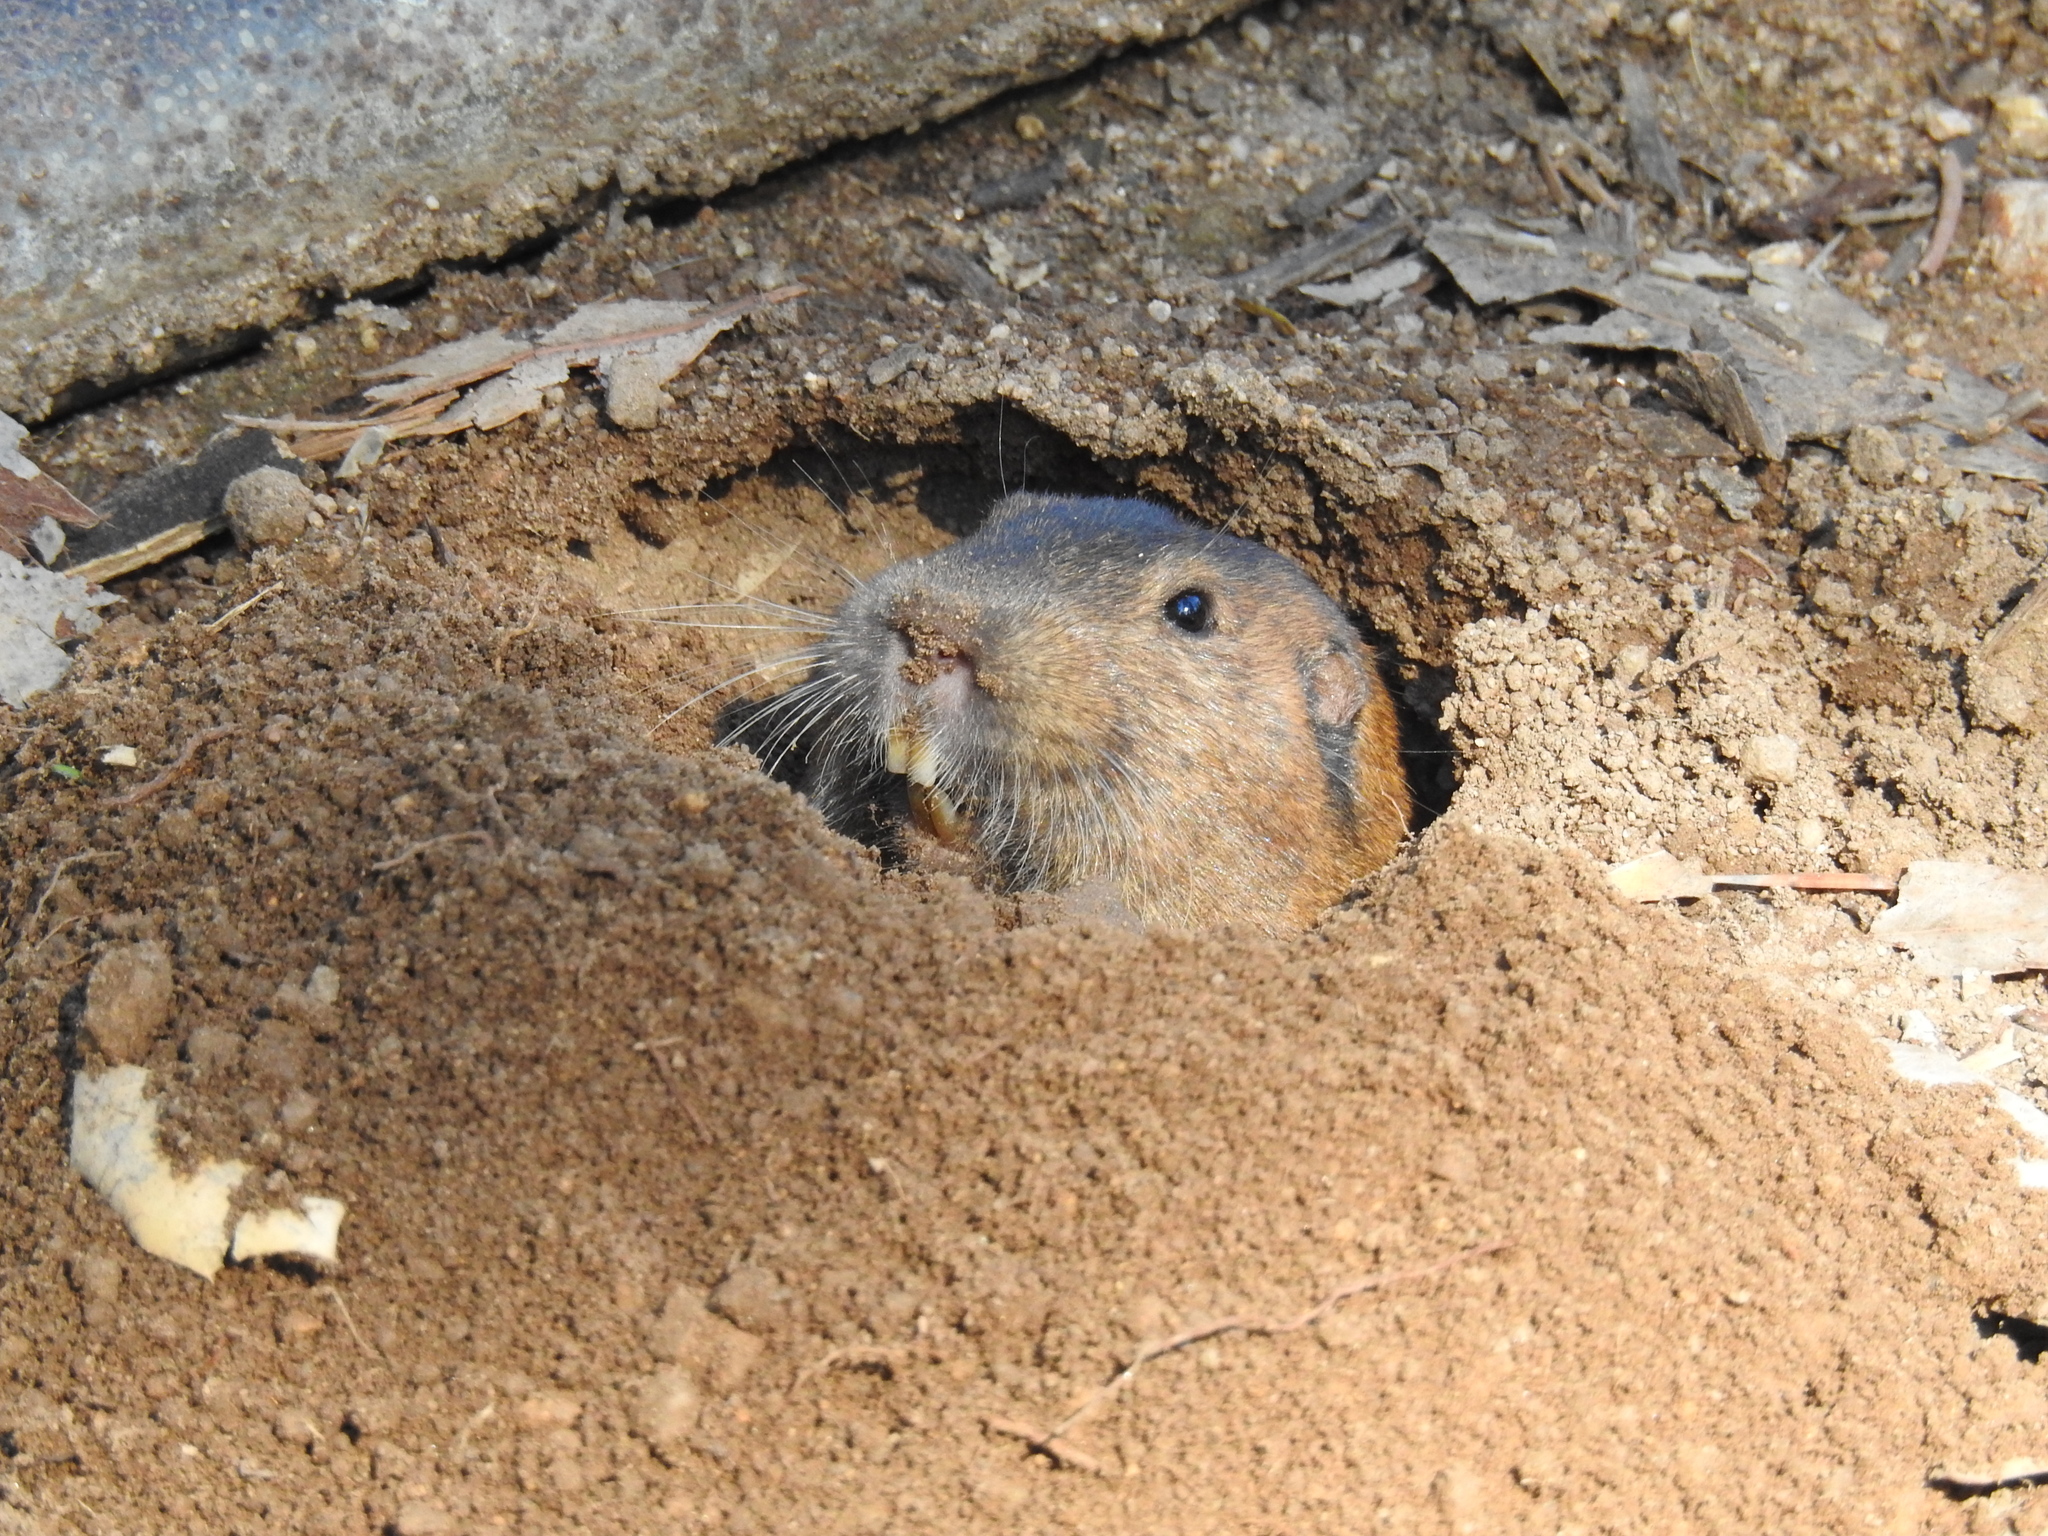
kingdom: Animalia
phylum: Chordata
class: Mammalia
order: Rodentia
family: Geomyidae
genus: Thomomys
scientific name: Thomomys bottae
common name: Botta's pocket gopher
